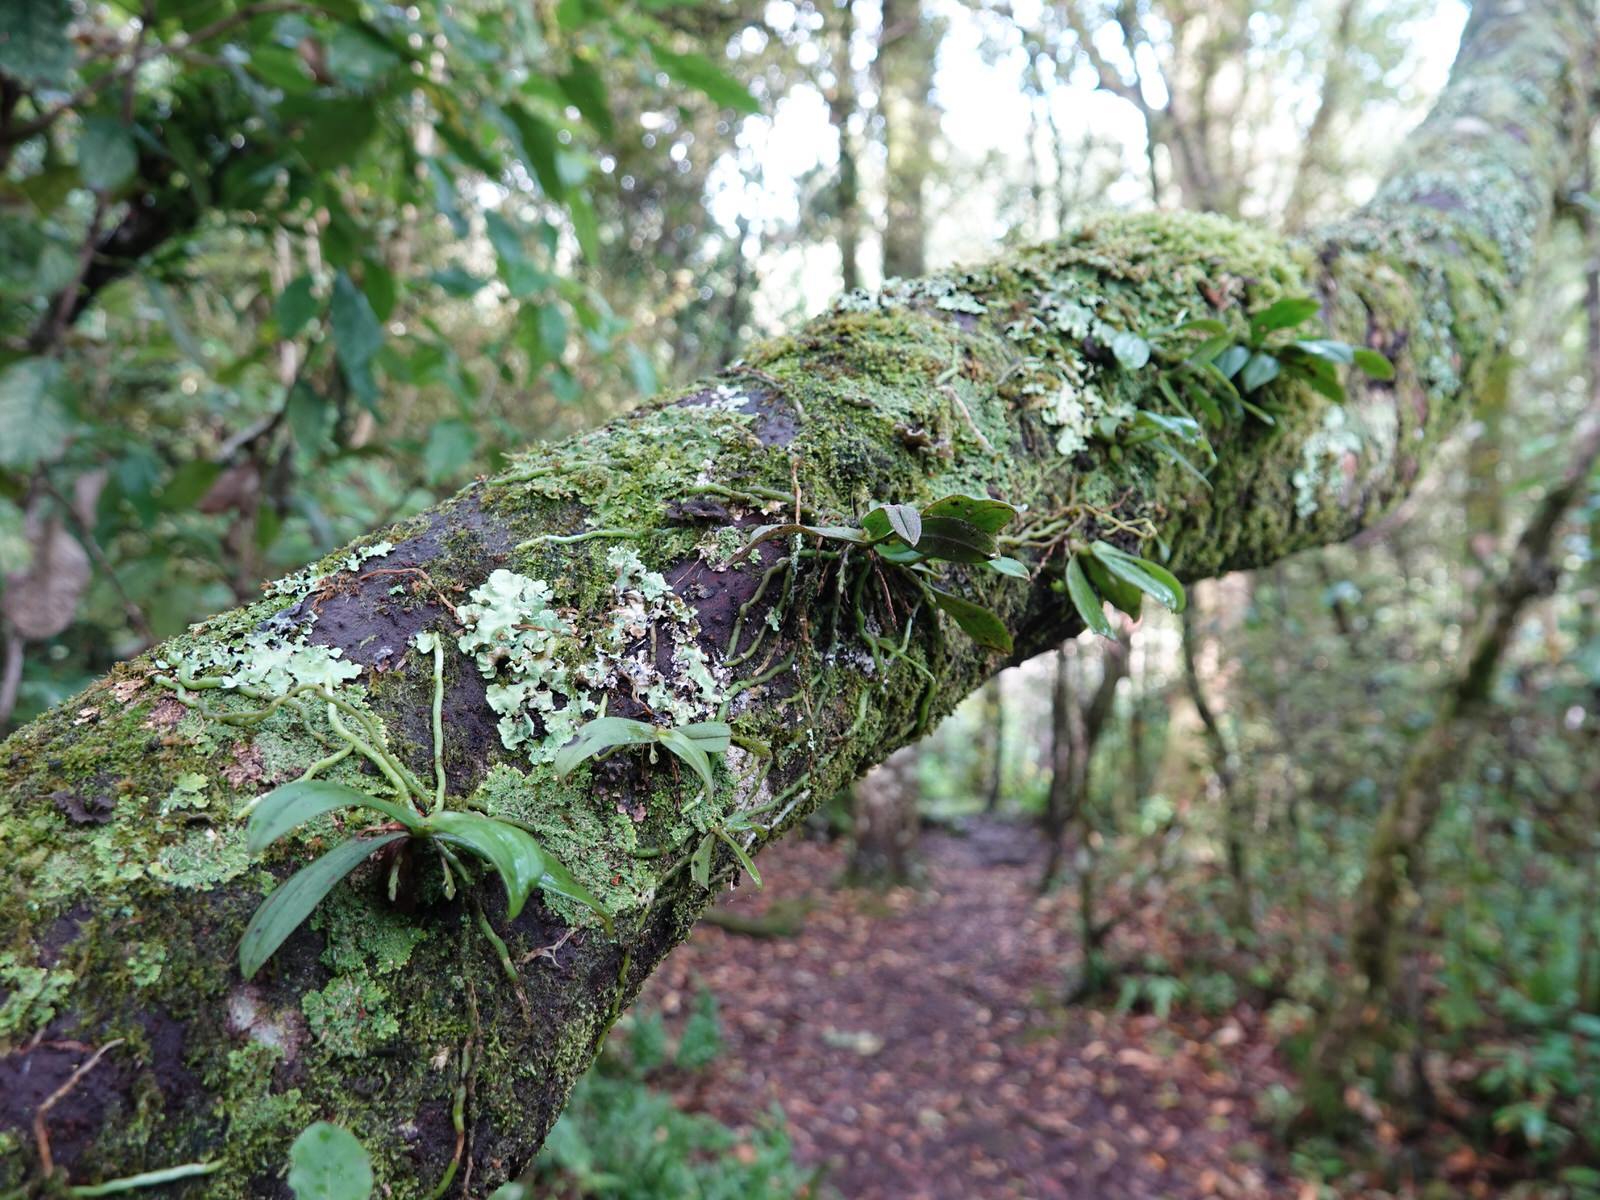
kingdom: Plantae
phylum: Tracheophyta
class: Liliopsida
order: Asparagales
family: Orchidaceae
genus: Drymoanthus
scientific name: Drymoanthus adversus
